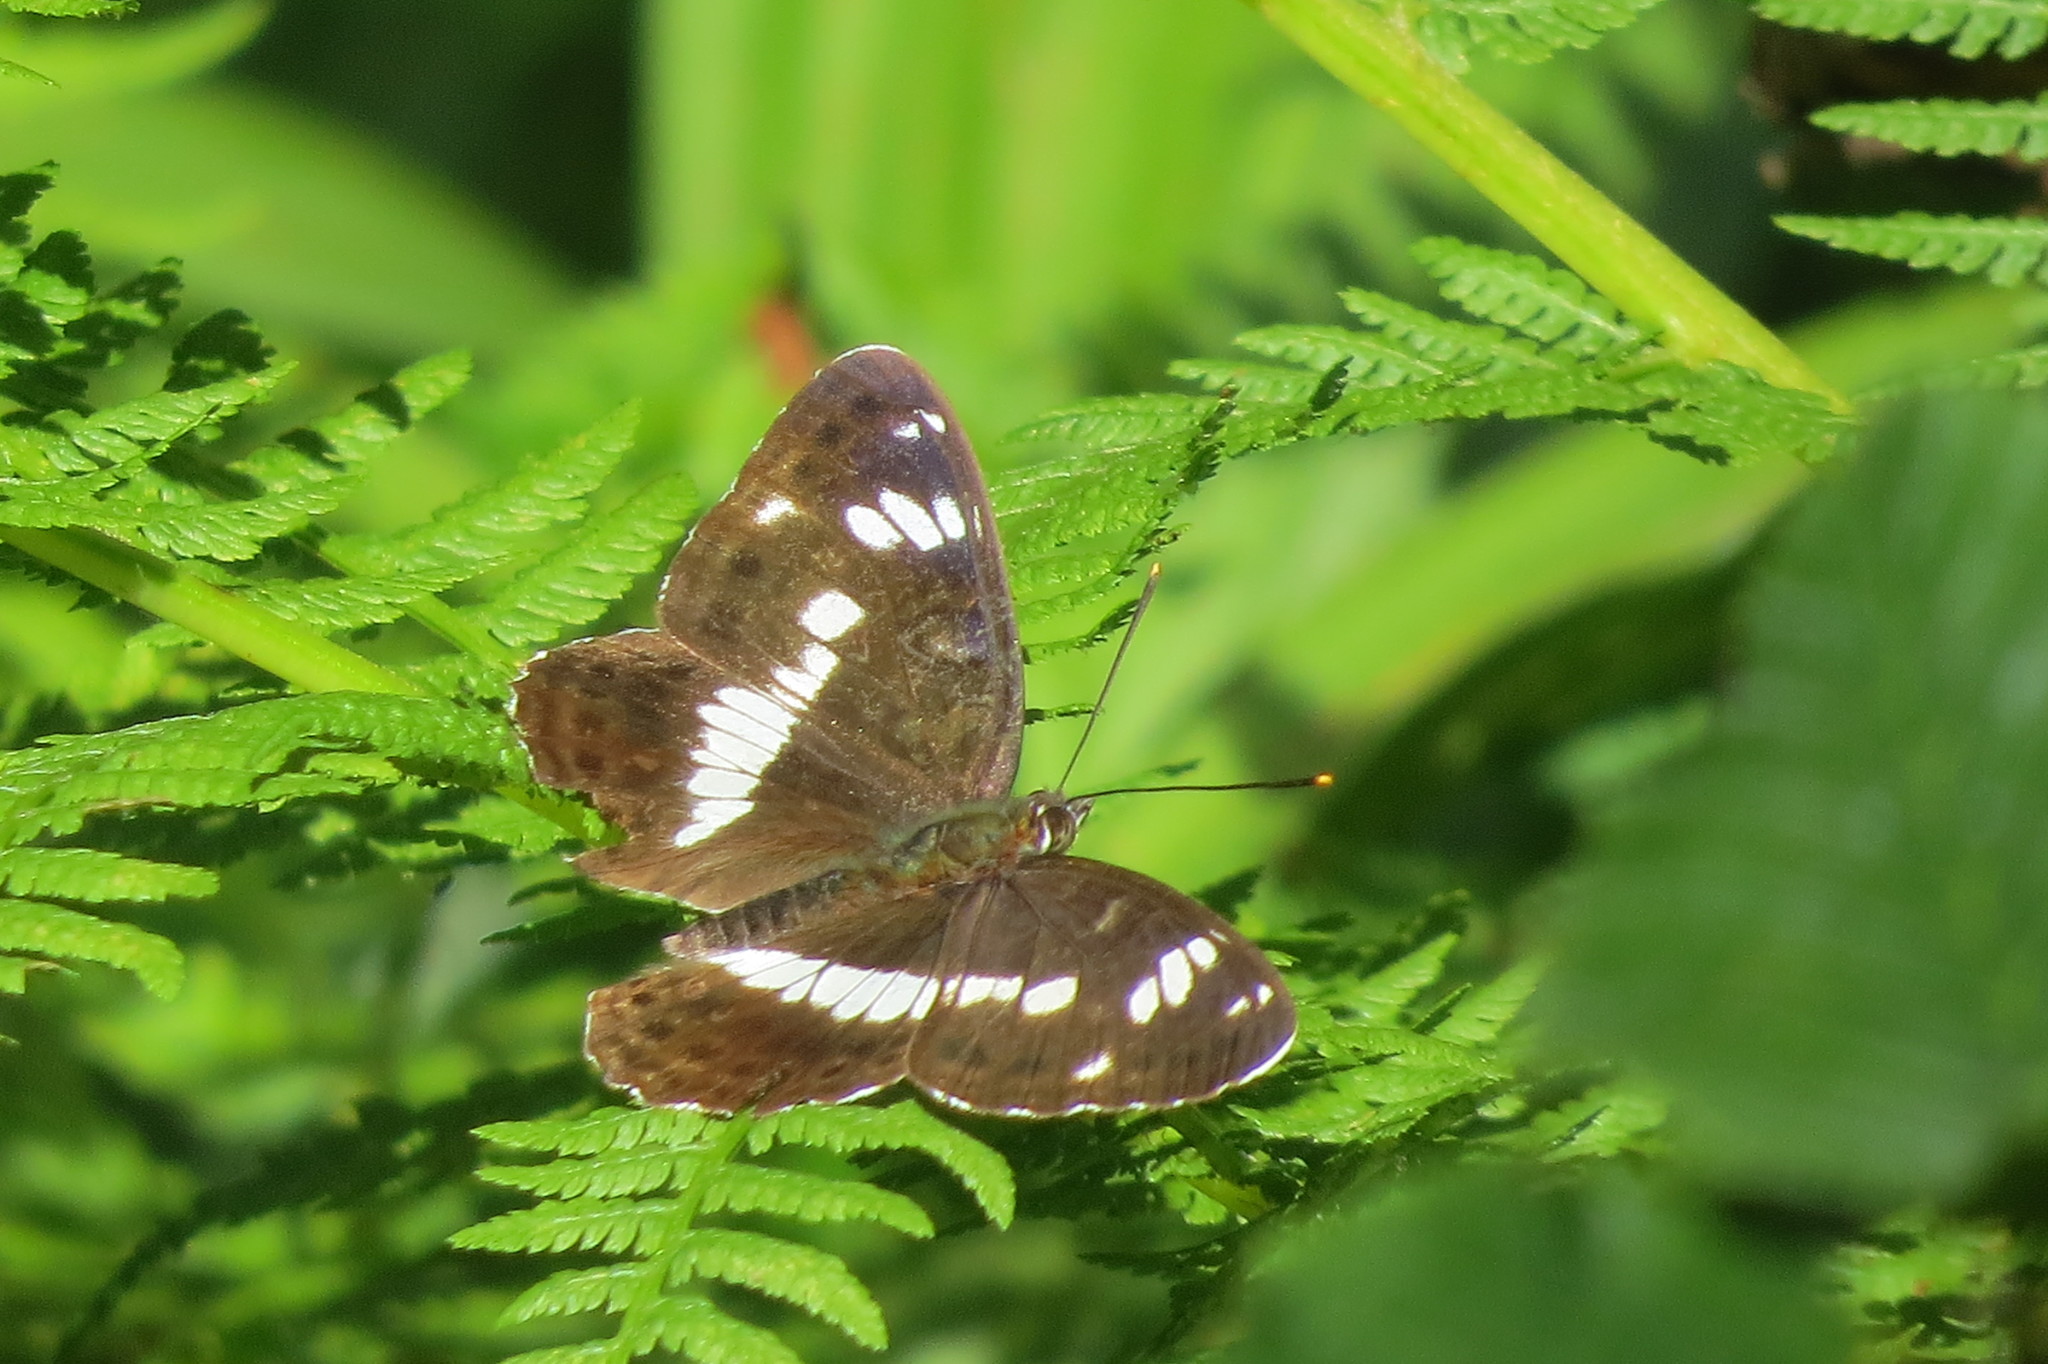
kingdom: Animalia
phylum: Arthropoda
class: Insecta
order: Lepidoptera
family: Nymphalidae
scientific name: Nymphalidae
